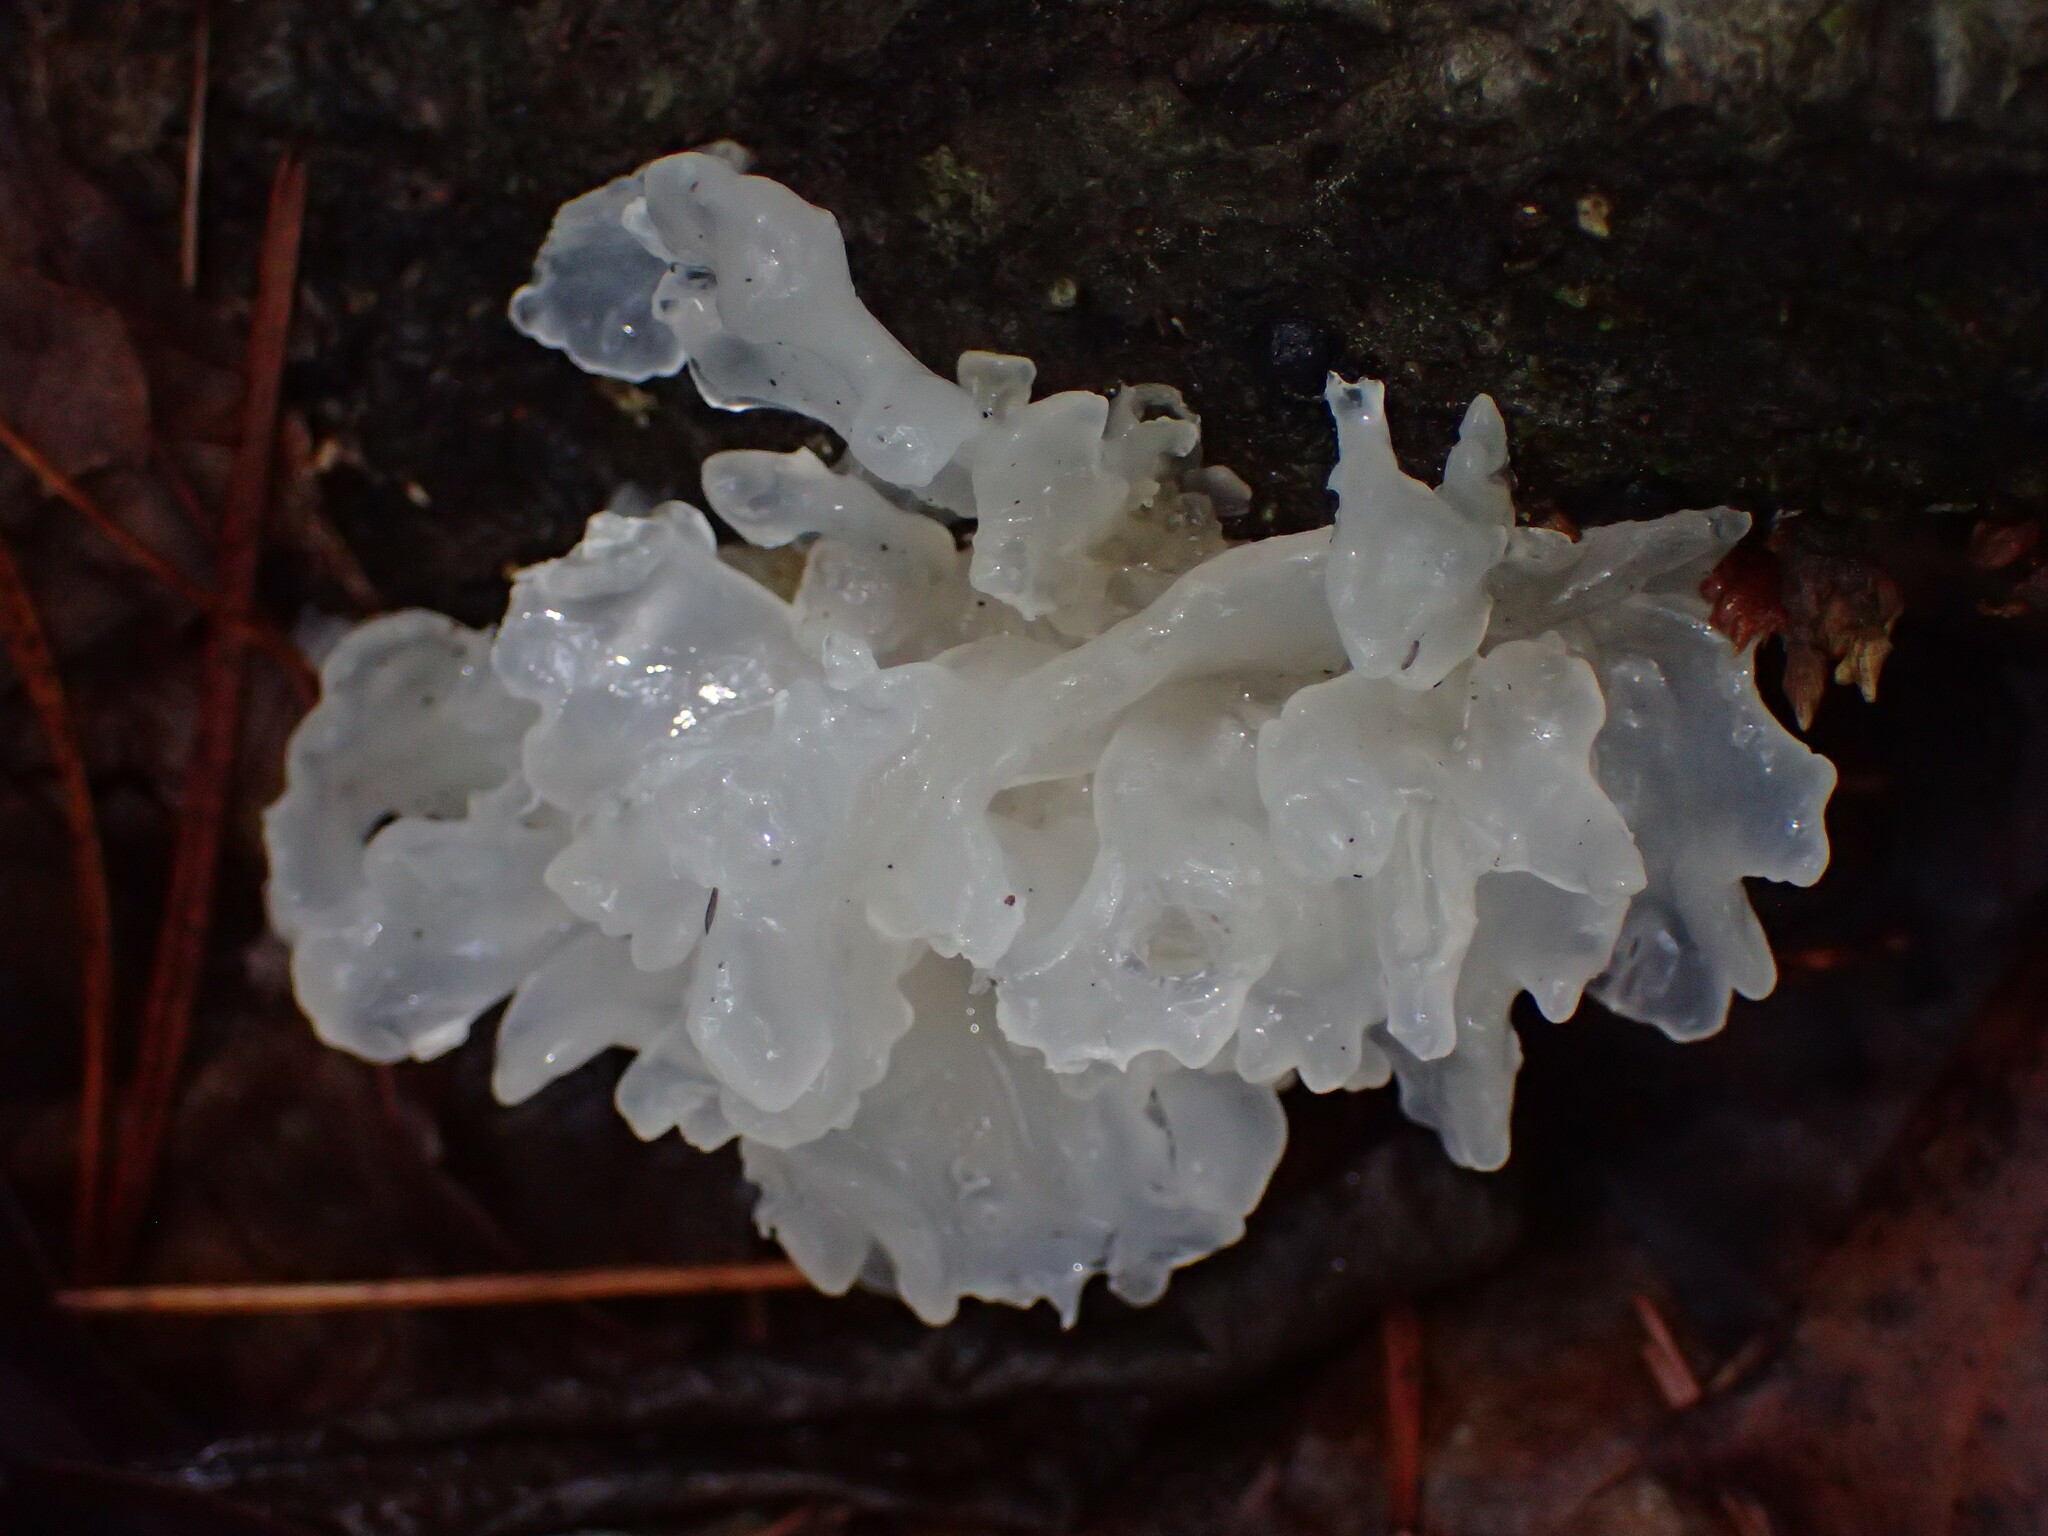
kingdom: Fungi
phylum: Basidiomycota
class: Tremellomycetes
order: Tremellales
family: Tremellaceae
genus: Tremella
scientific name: Tremella fuciformis
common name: Snow fungus
